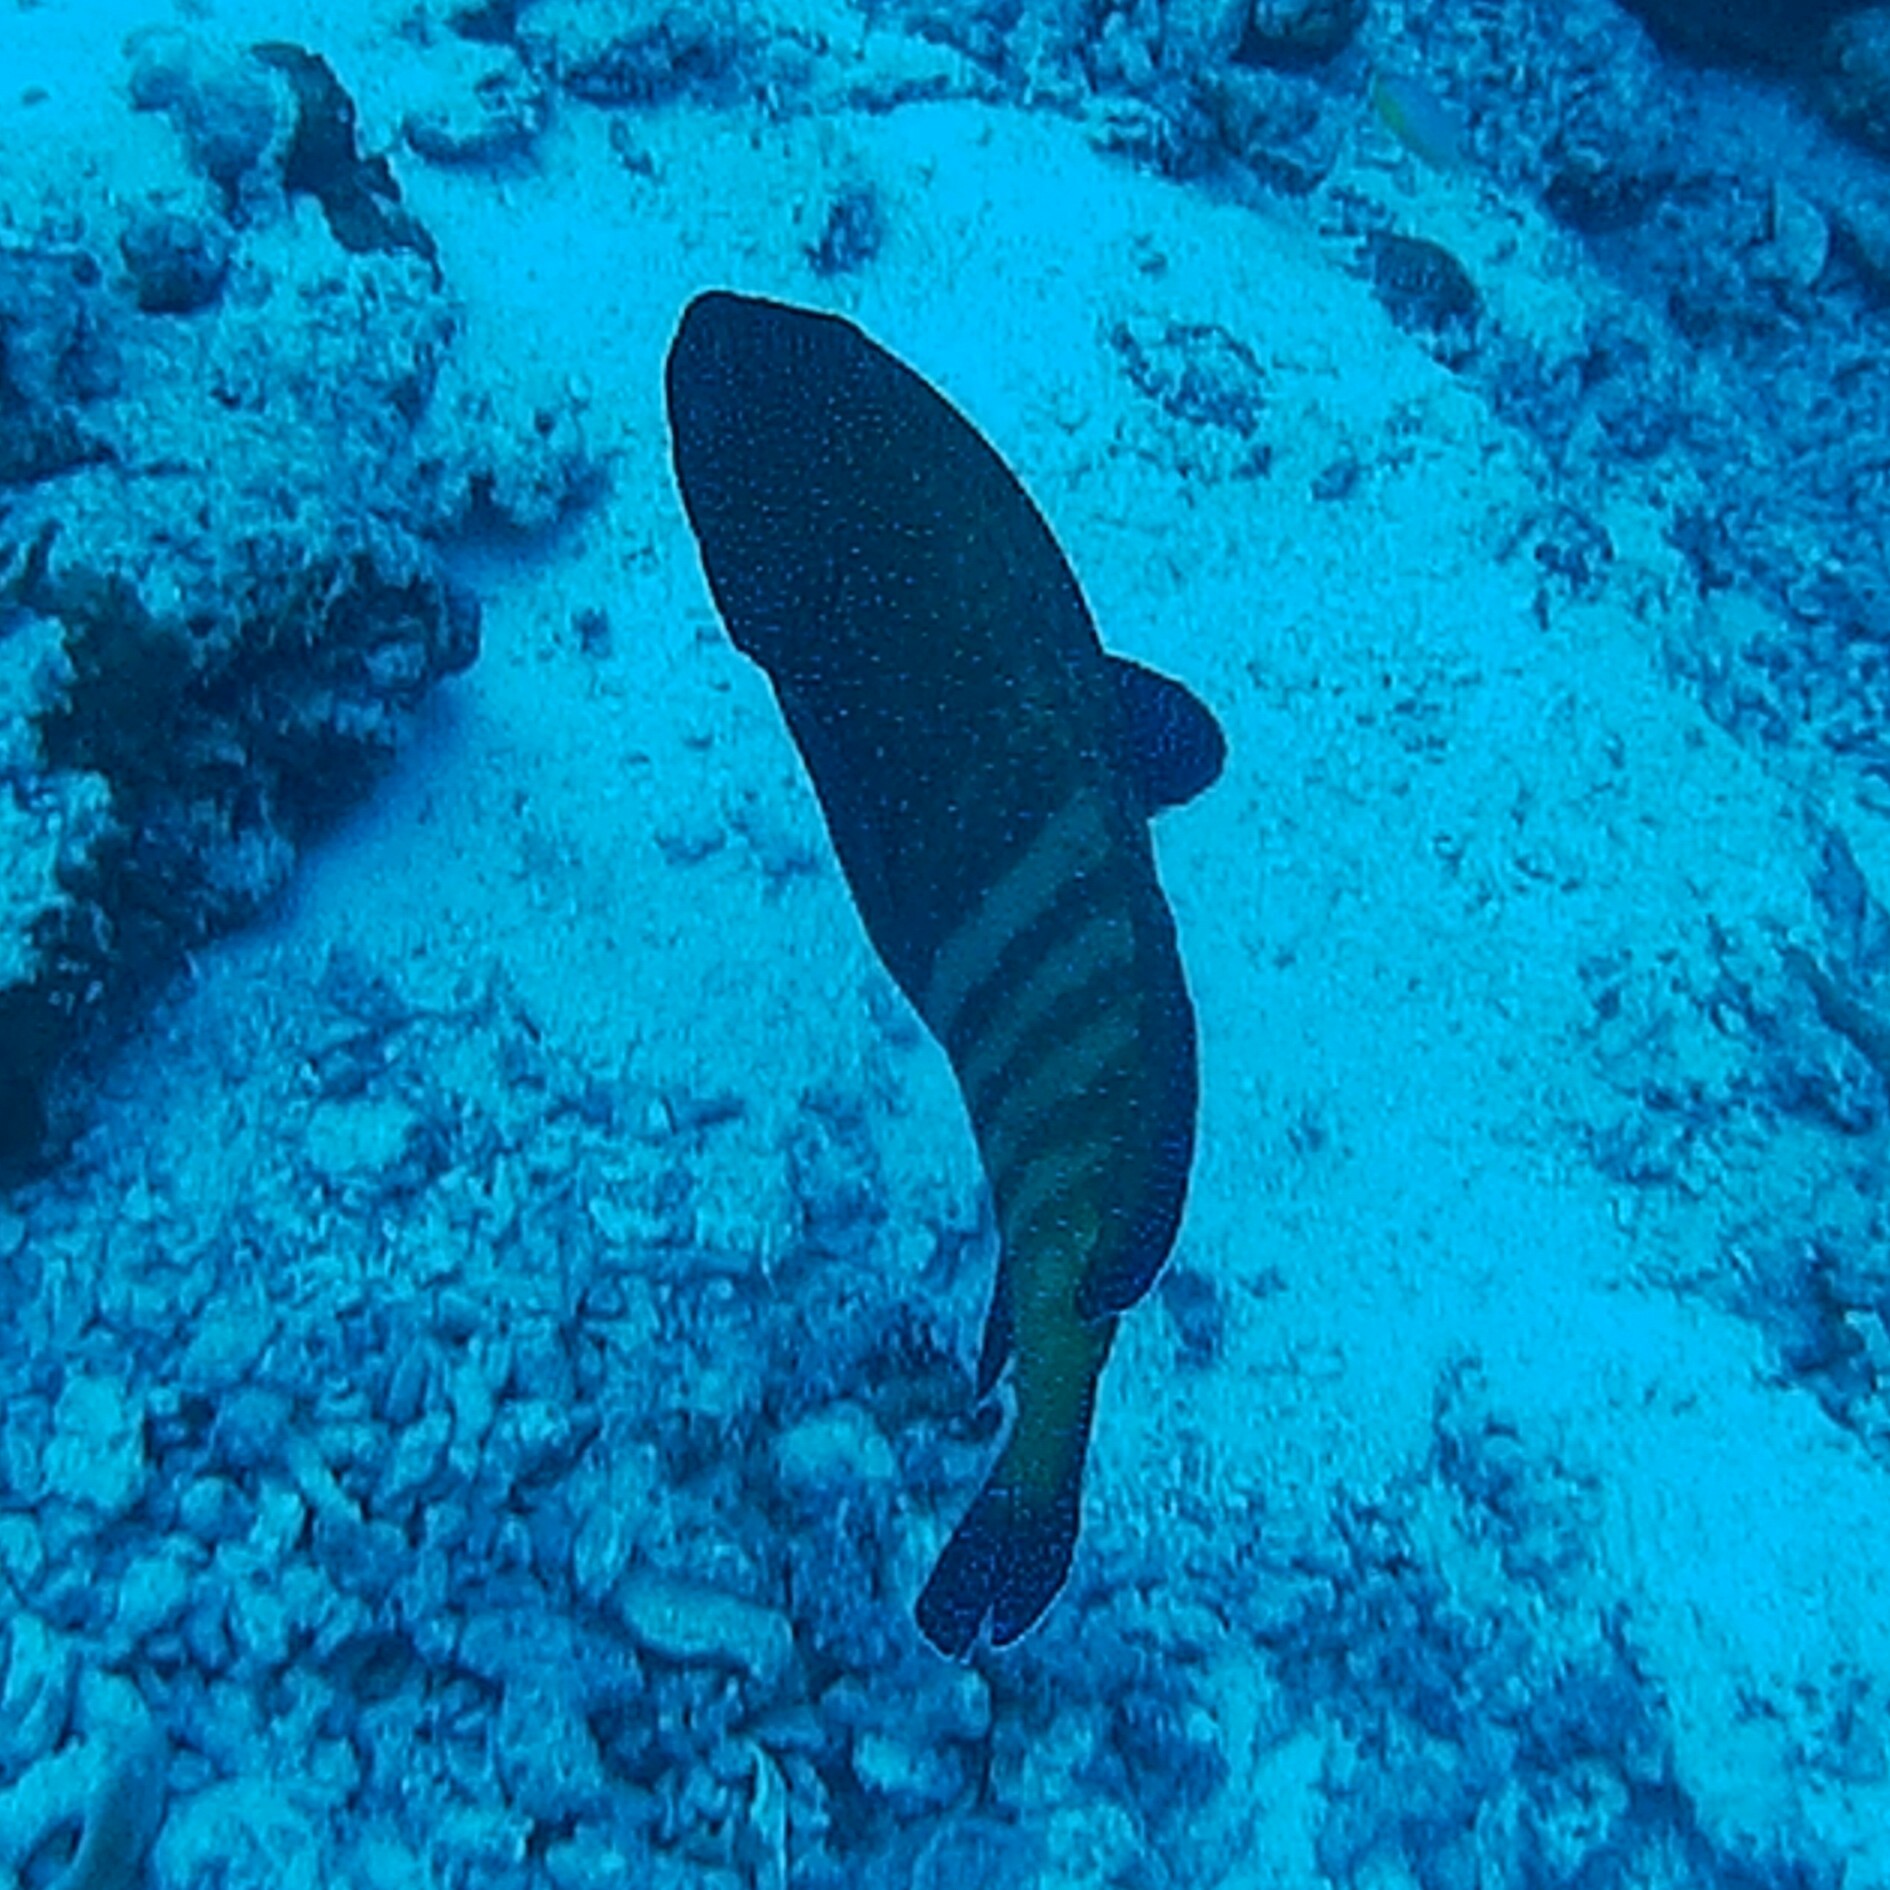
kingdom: Animalia
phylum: Chordata
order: Perciformes
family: Serranidae
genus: Cephalopholis
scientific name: Cephalopholis argus
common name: Peacock grouper
